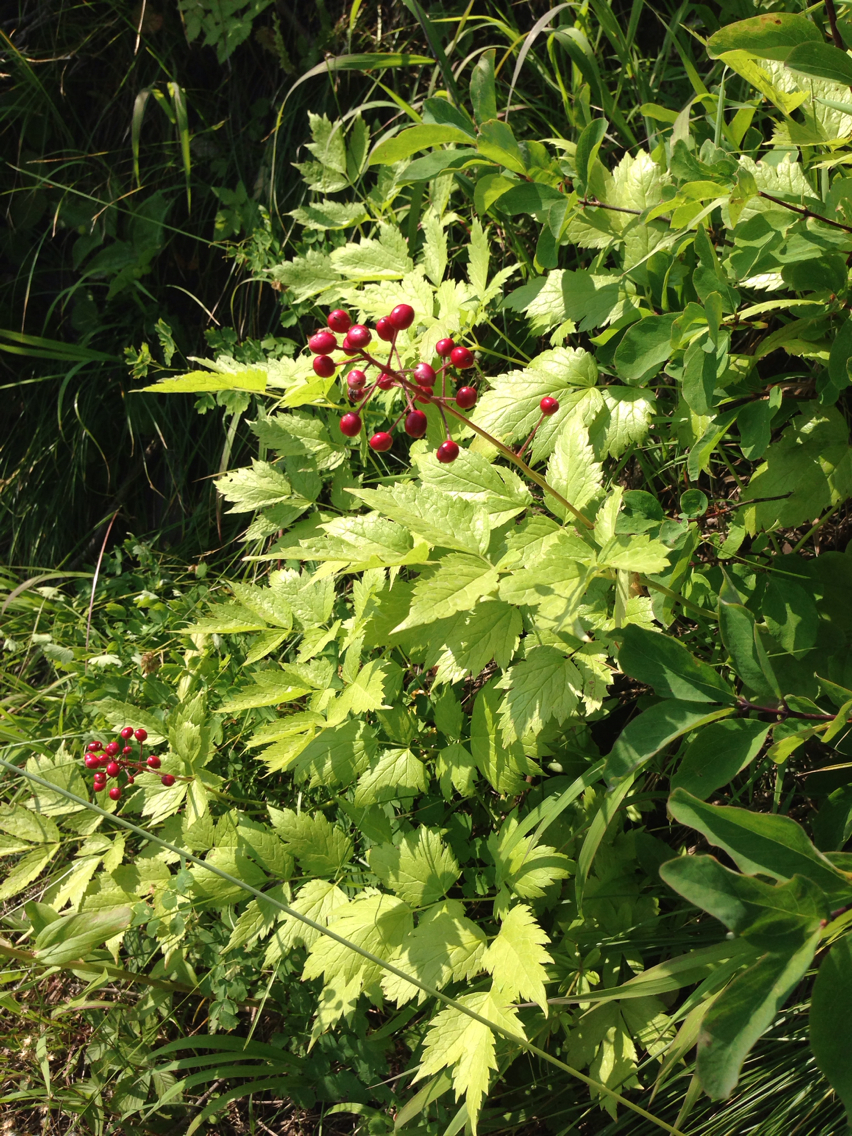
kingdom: Plantae
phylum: Tracheophyta
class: Magnoliopsida
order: Ranunculales
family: Ranunculaceae
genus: Actaea
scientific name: Actaea rubra
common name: Red baneberry
